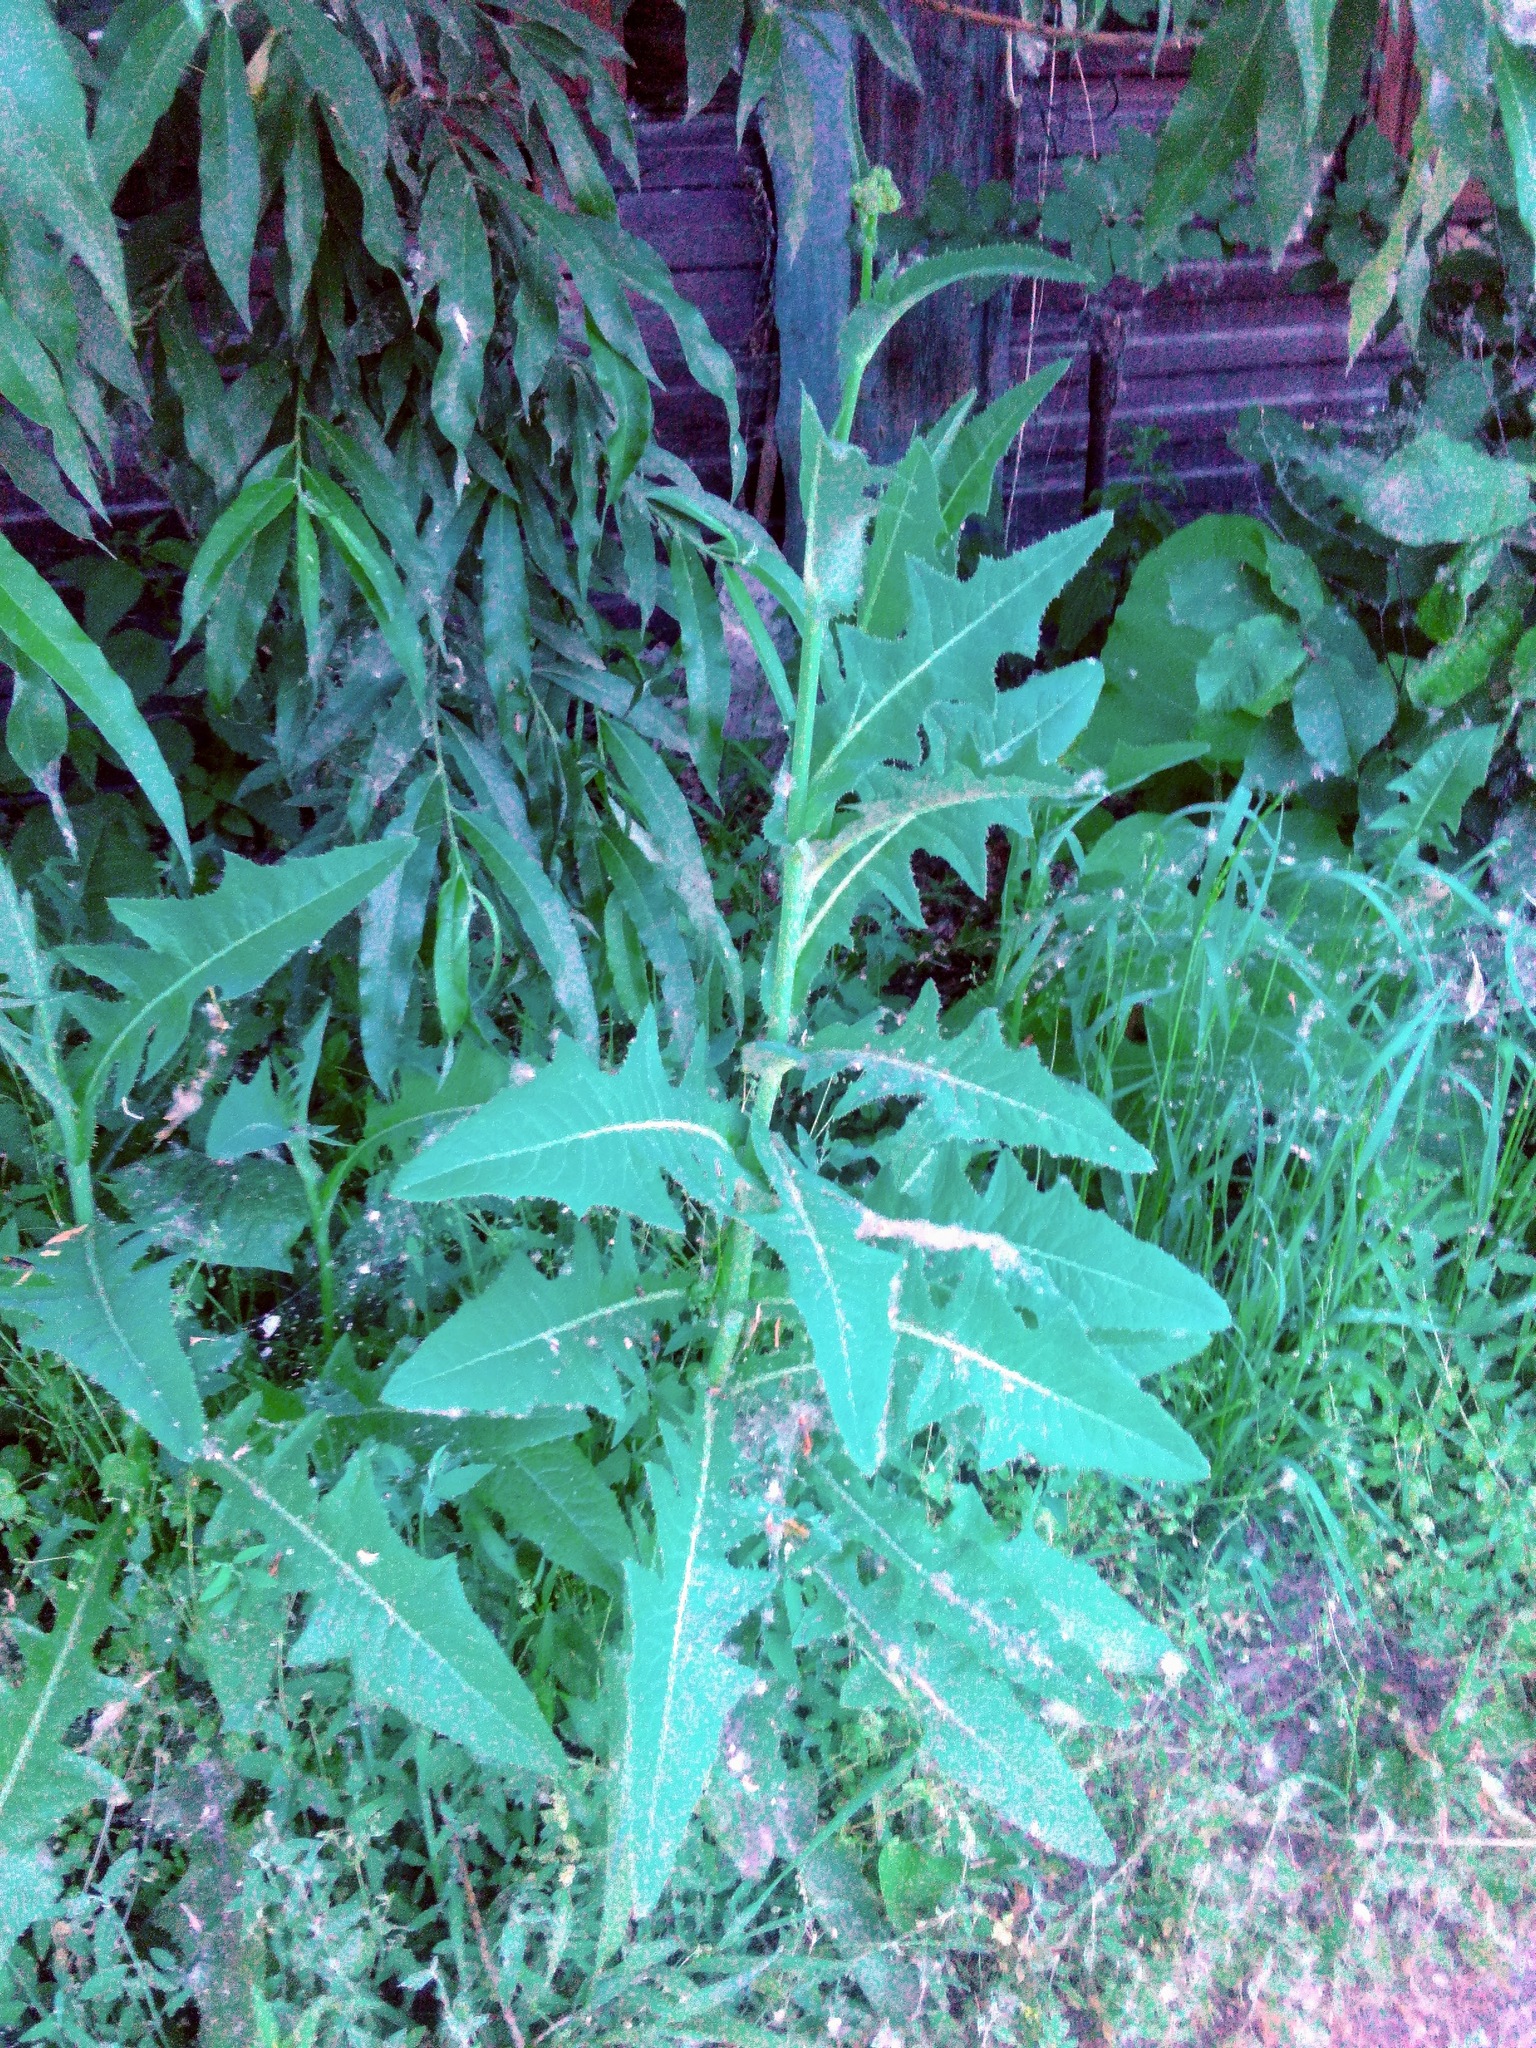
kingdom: Plantae
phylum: Tracheophyta
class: Magnoliopsida
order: Asterales
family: Asteraceae
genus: Sonchus
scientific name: Sonchus arvensis
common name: Perennial sow-thistle
